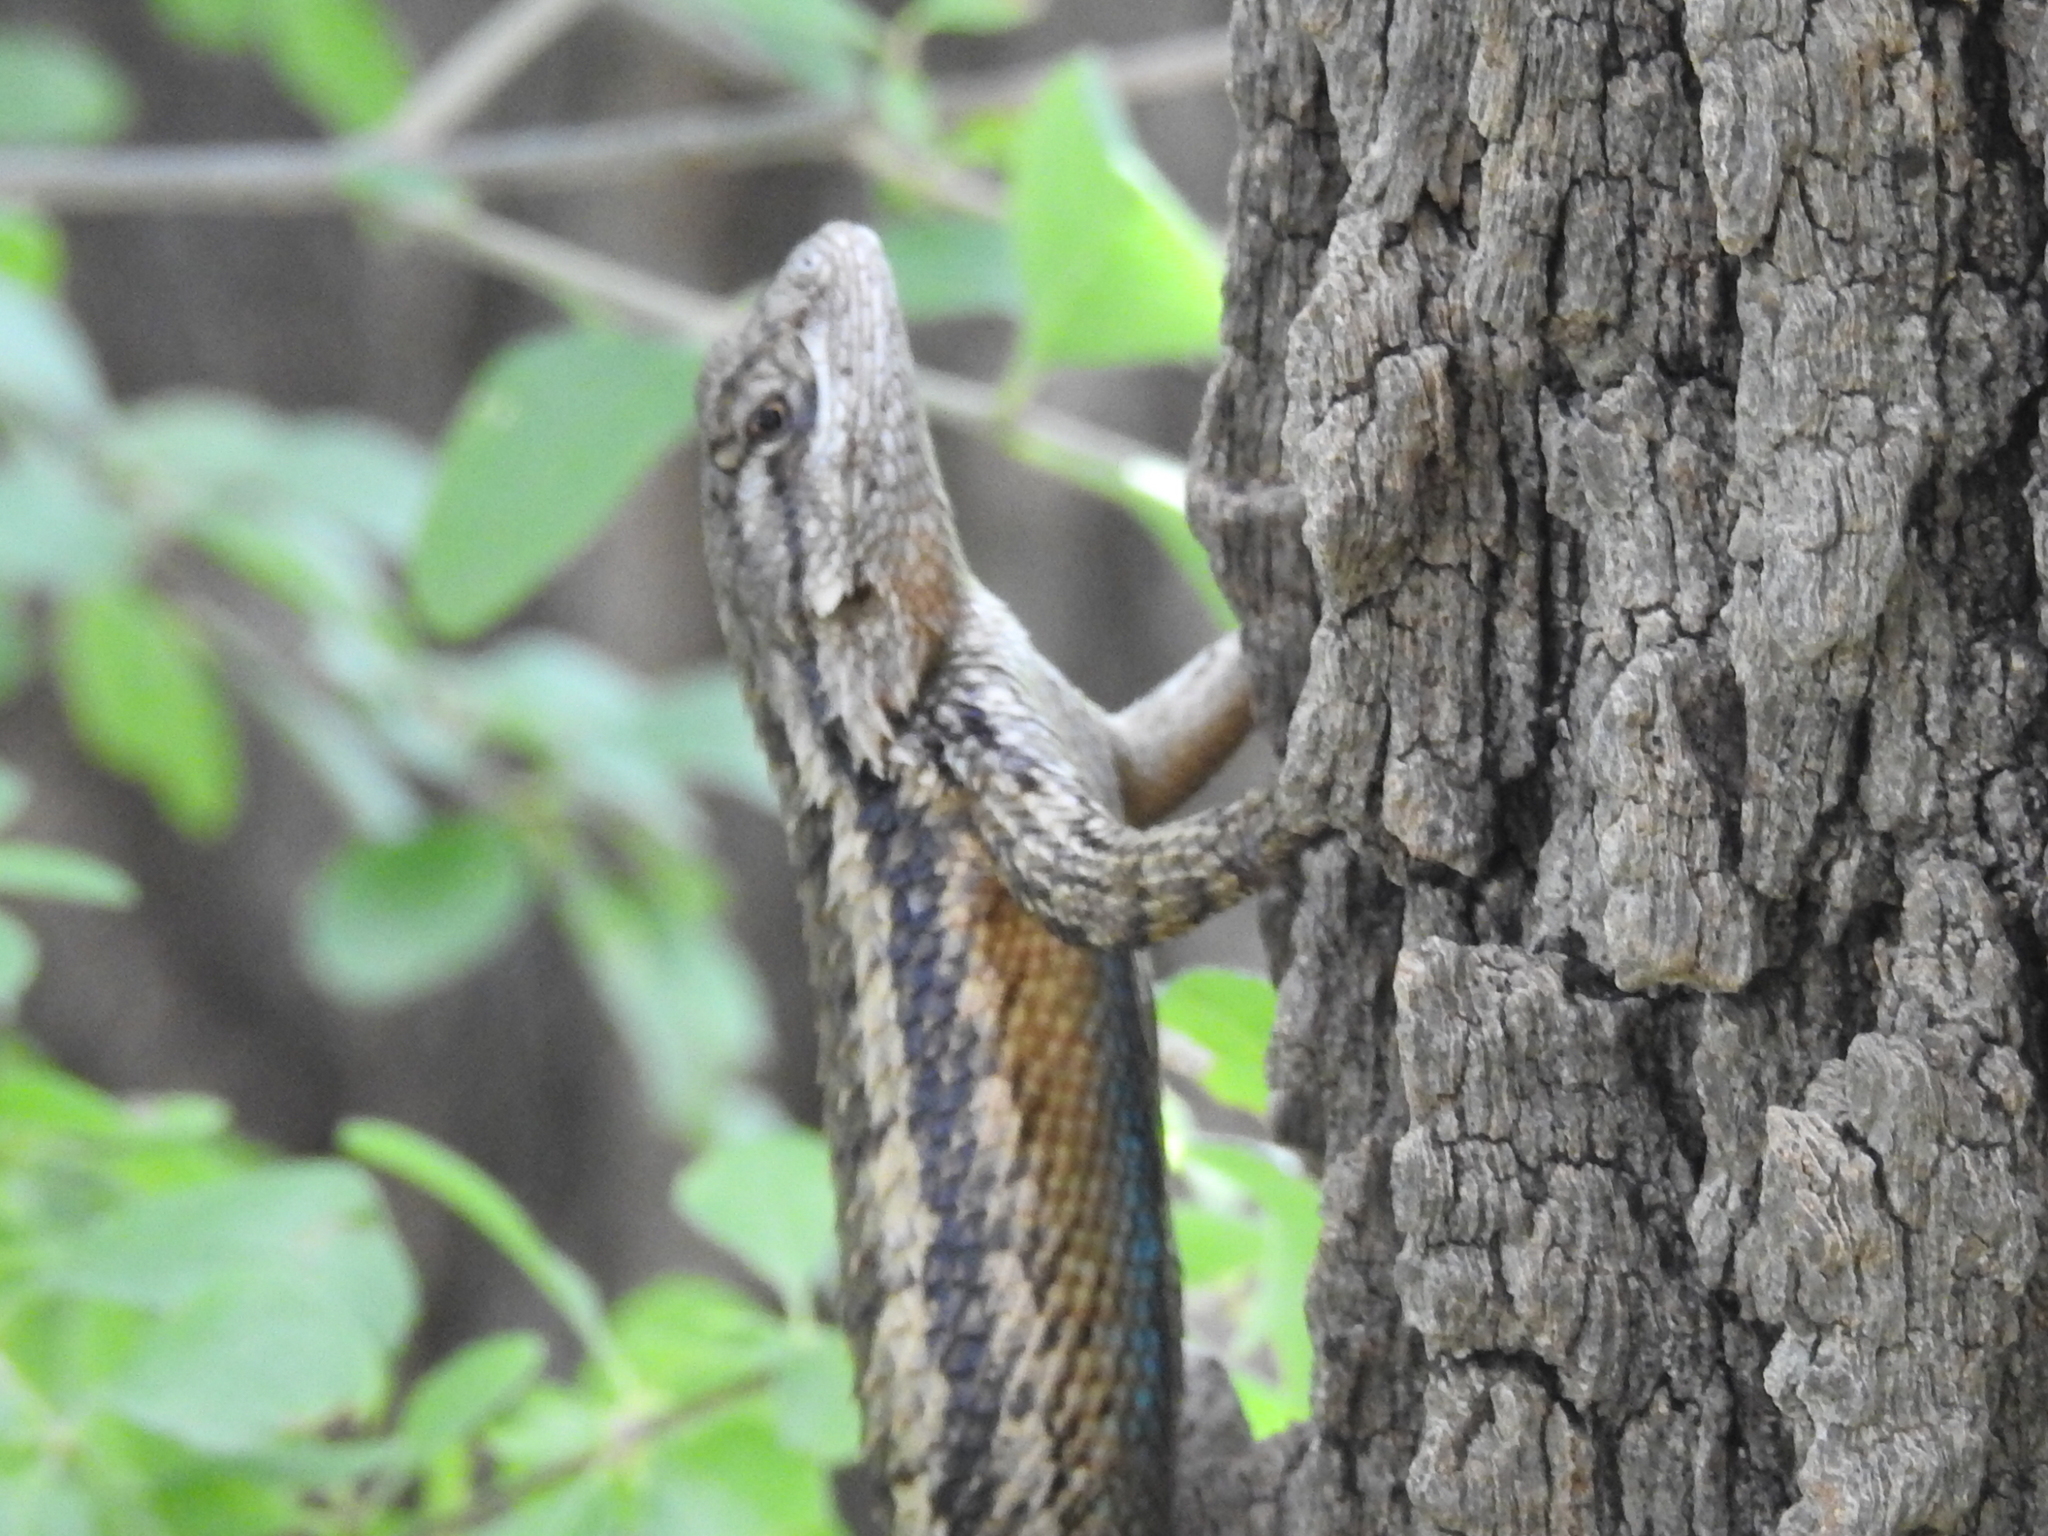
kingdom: Animalia
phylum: Chordata
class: Squamata
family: Phrynosomatidae
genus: Sceloporus
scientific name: Sceloporus olivaceus
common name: Texas spiny lizard
